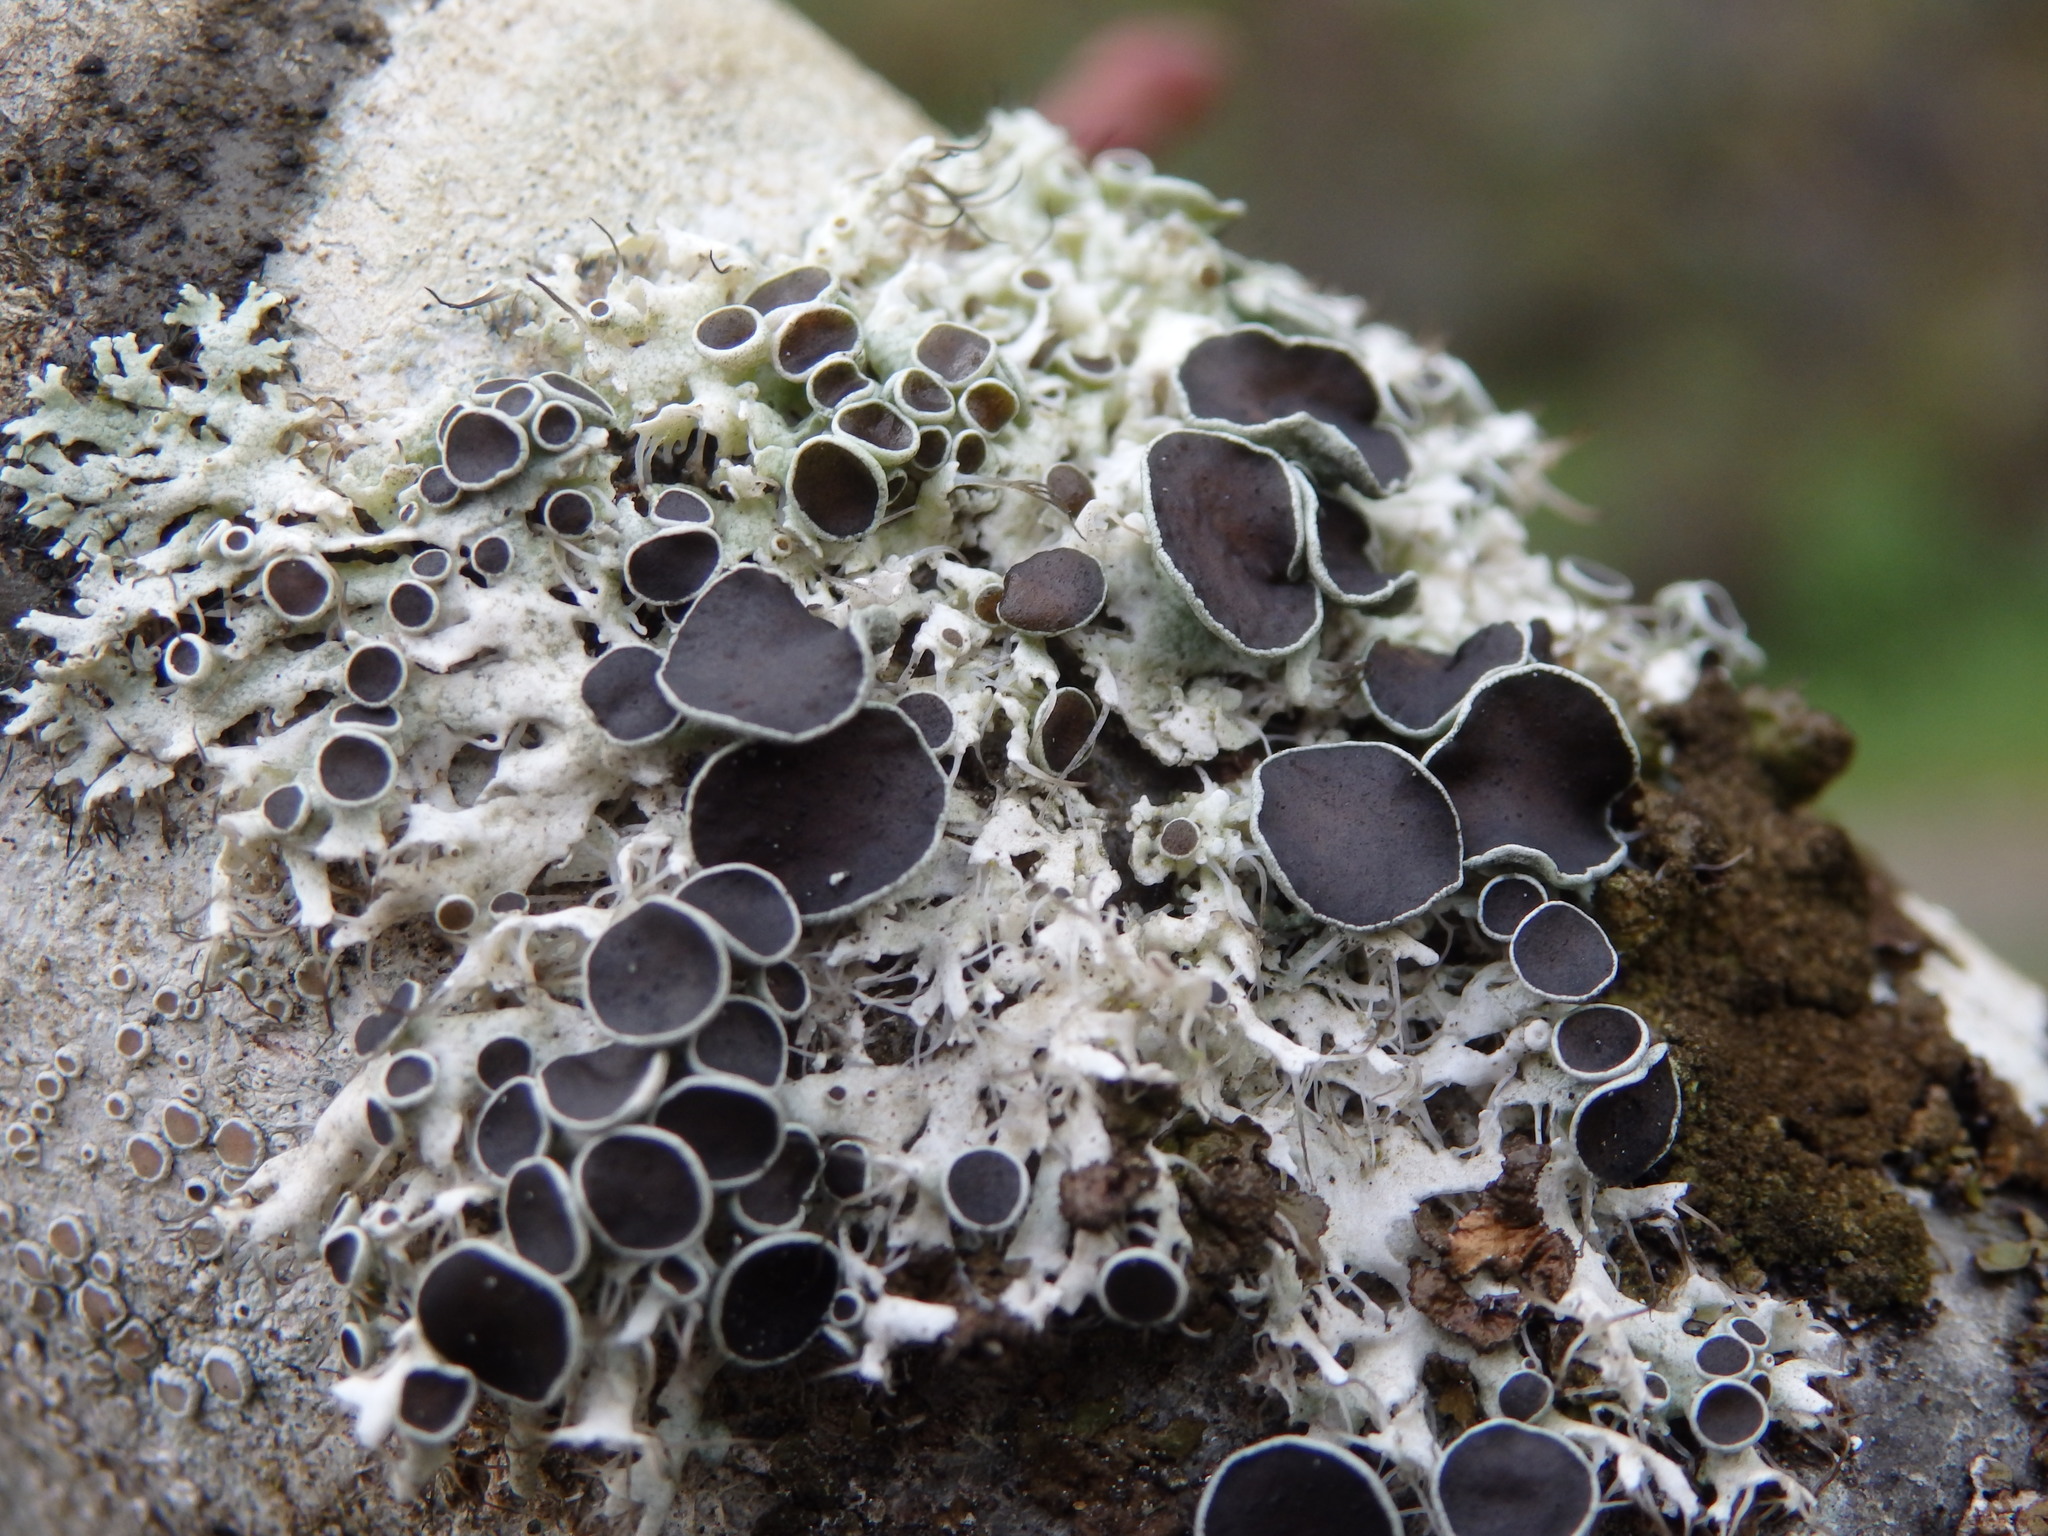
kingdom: Fungi
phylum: Ascomycota
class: Lecanoromycetes
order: Caliciales
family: Physciaceae
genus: Physcia
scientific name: Physcia tenella
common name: Fringed rosette lichen
